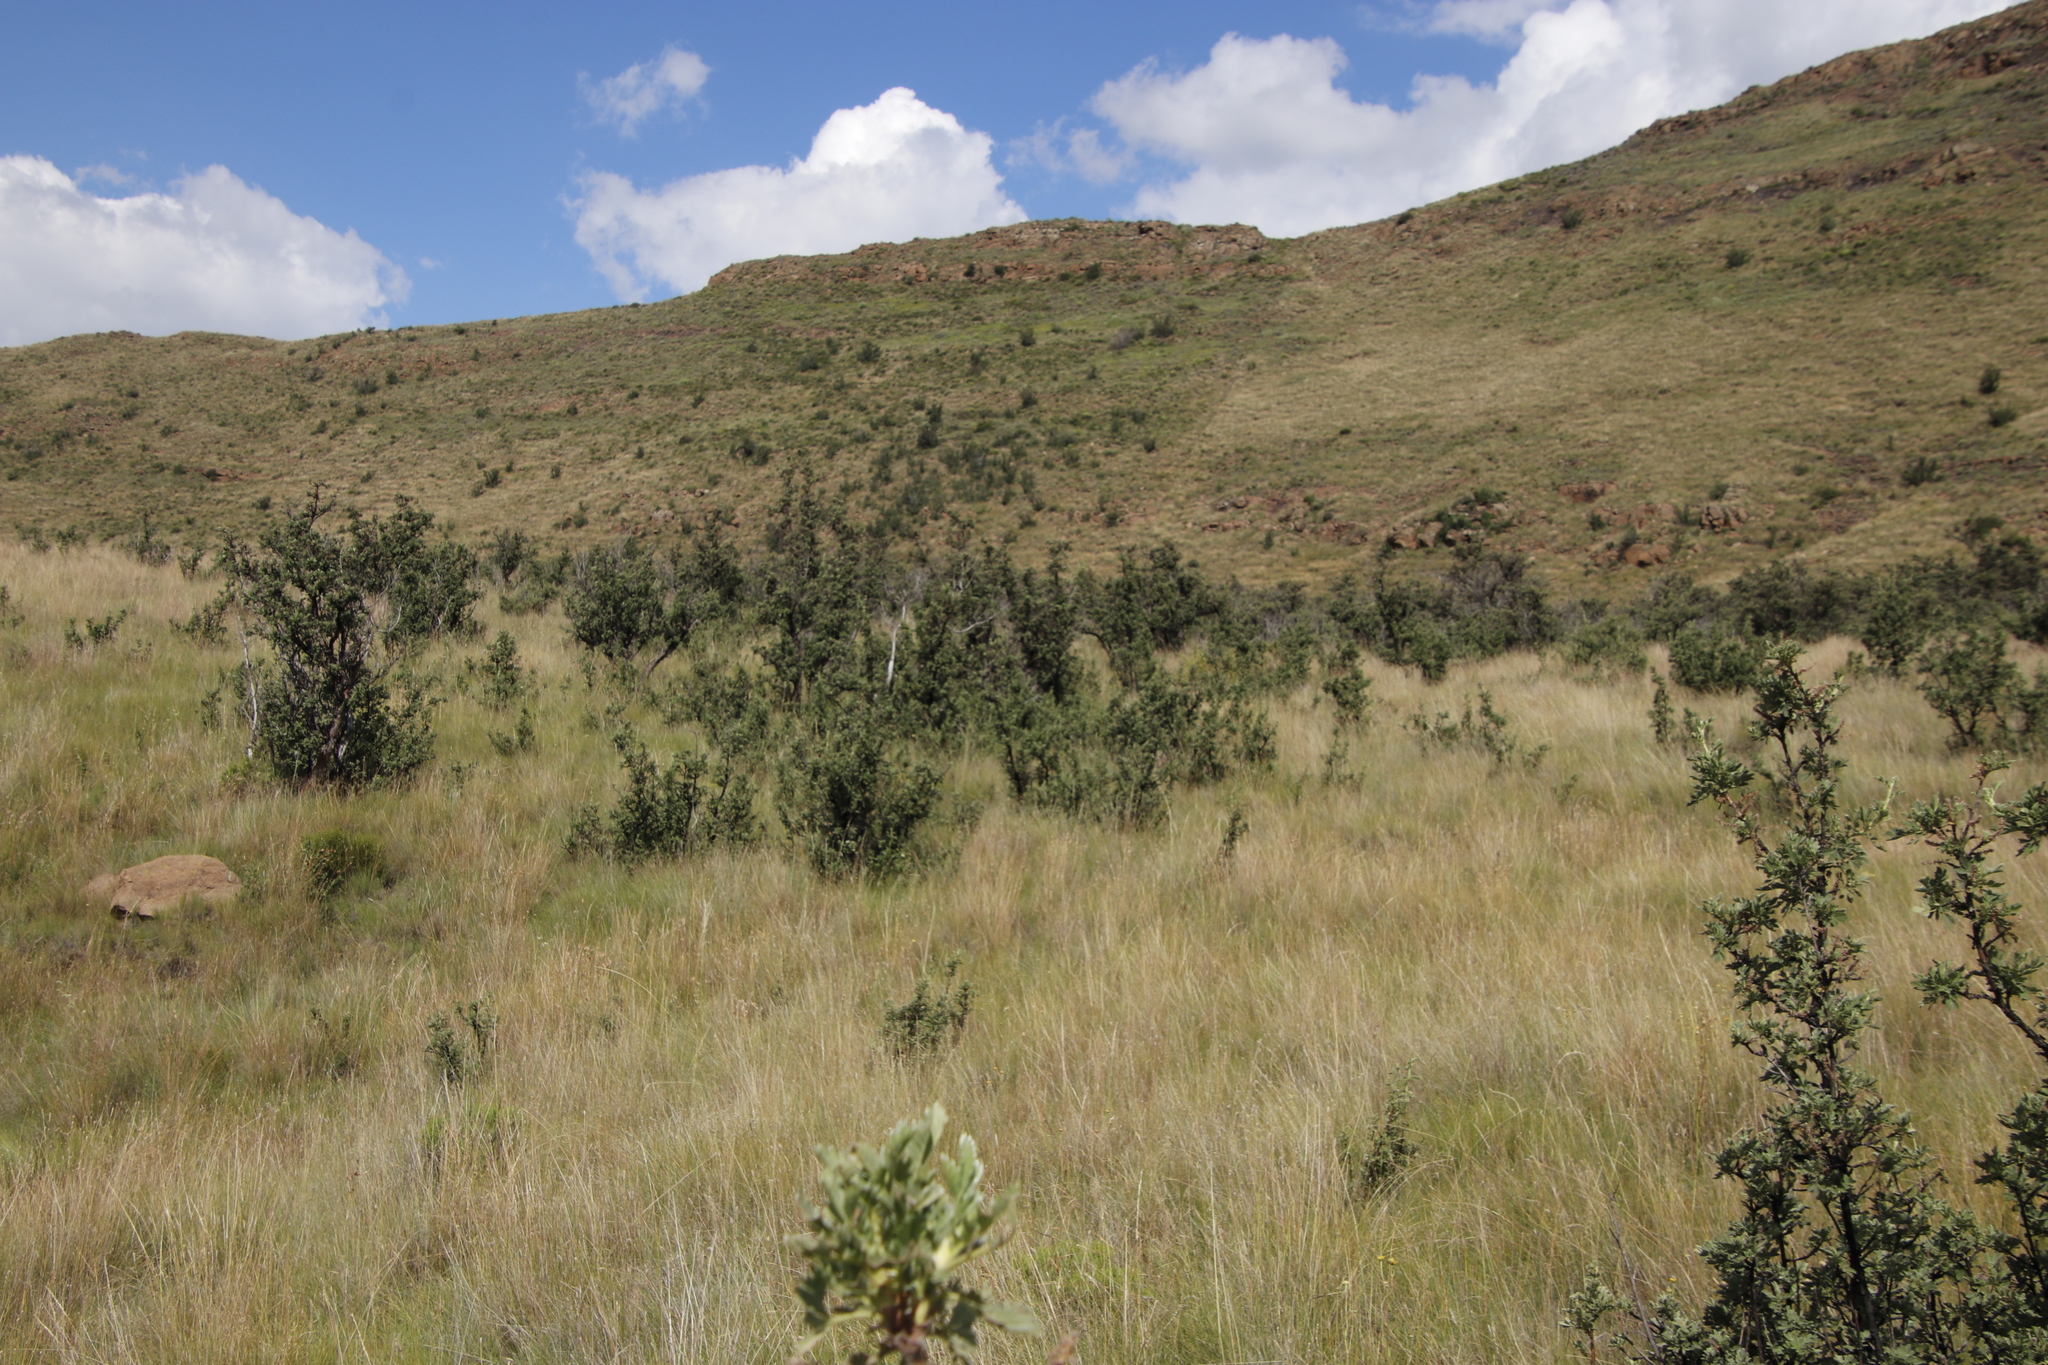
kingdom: Plantae
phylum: Tracheophyta
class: Magnoliopsida
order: Rosales
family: Rosaceae
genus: Leucosidea
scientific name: Leucosidea sericea
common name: Oldwood
